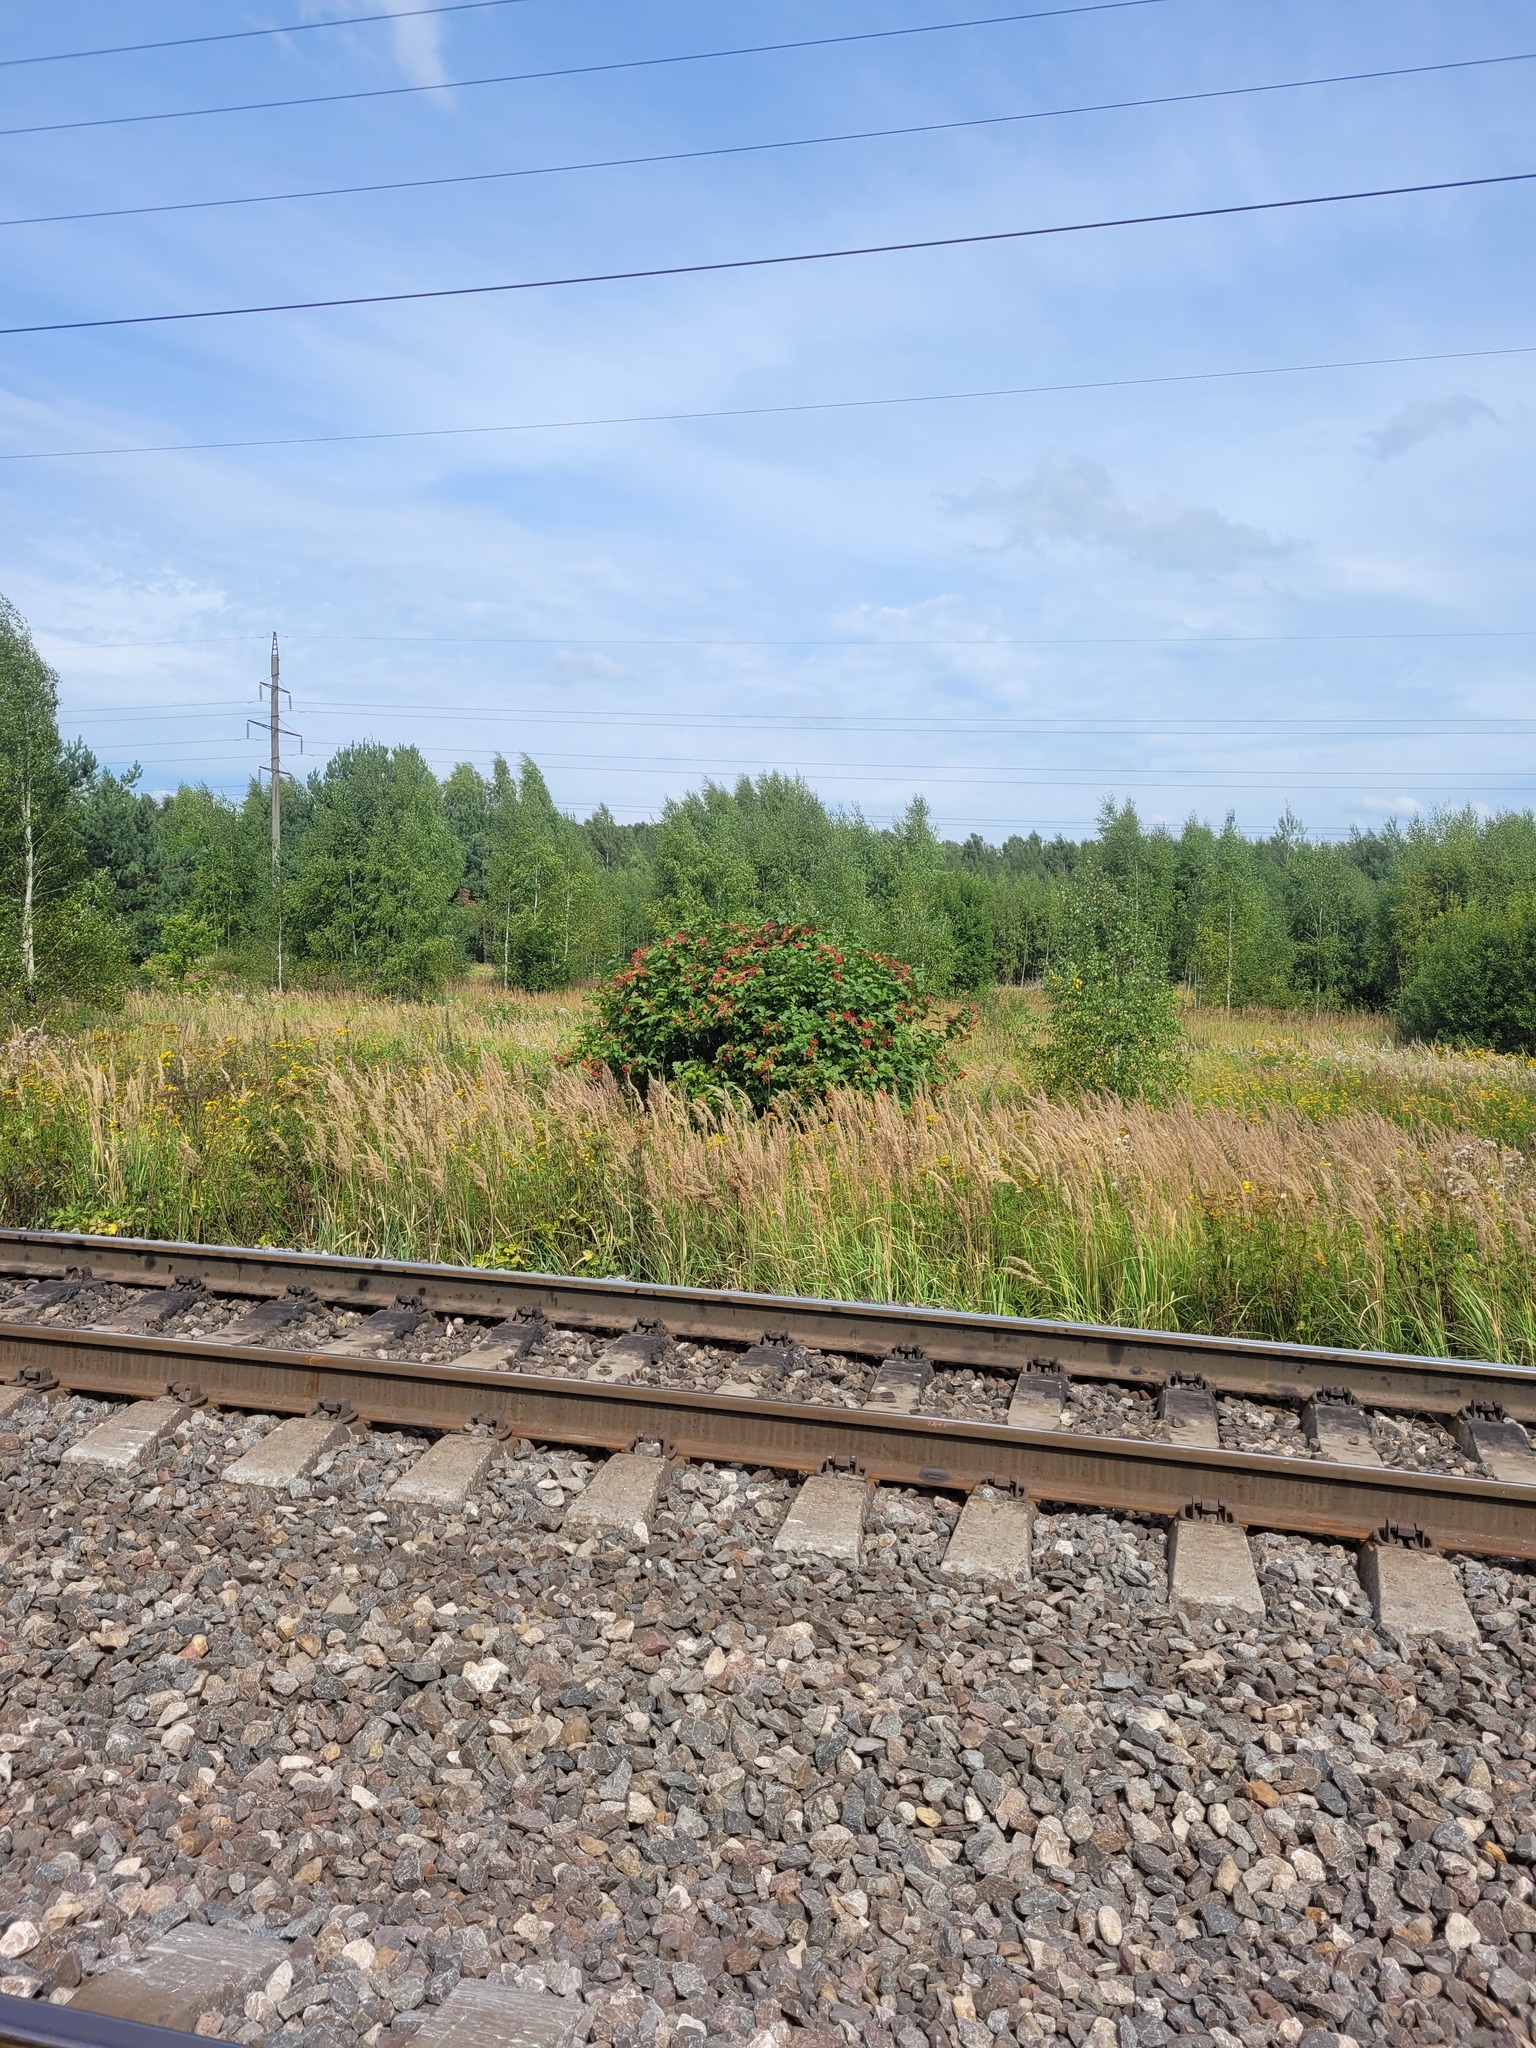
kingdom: Plantae
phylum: Tracheophyta
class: Magnoliopsida
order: Dipsacales
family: Viburnaceae
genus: Viburnum
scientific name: Viburnum opulus
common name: Guelder-rose
